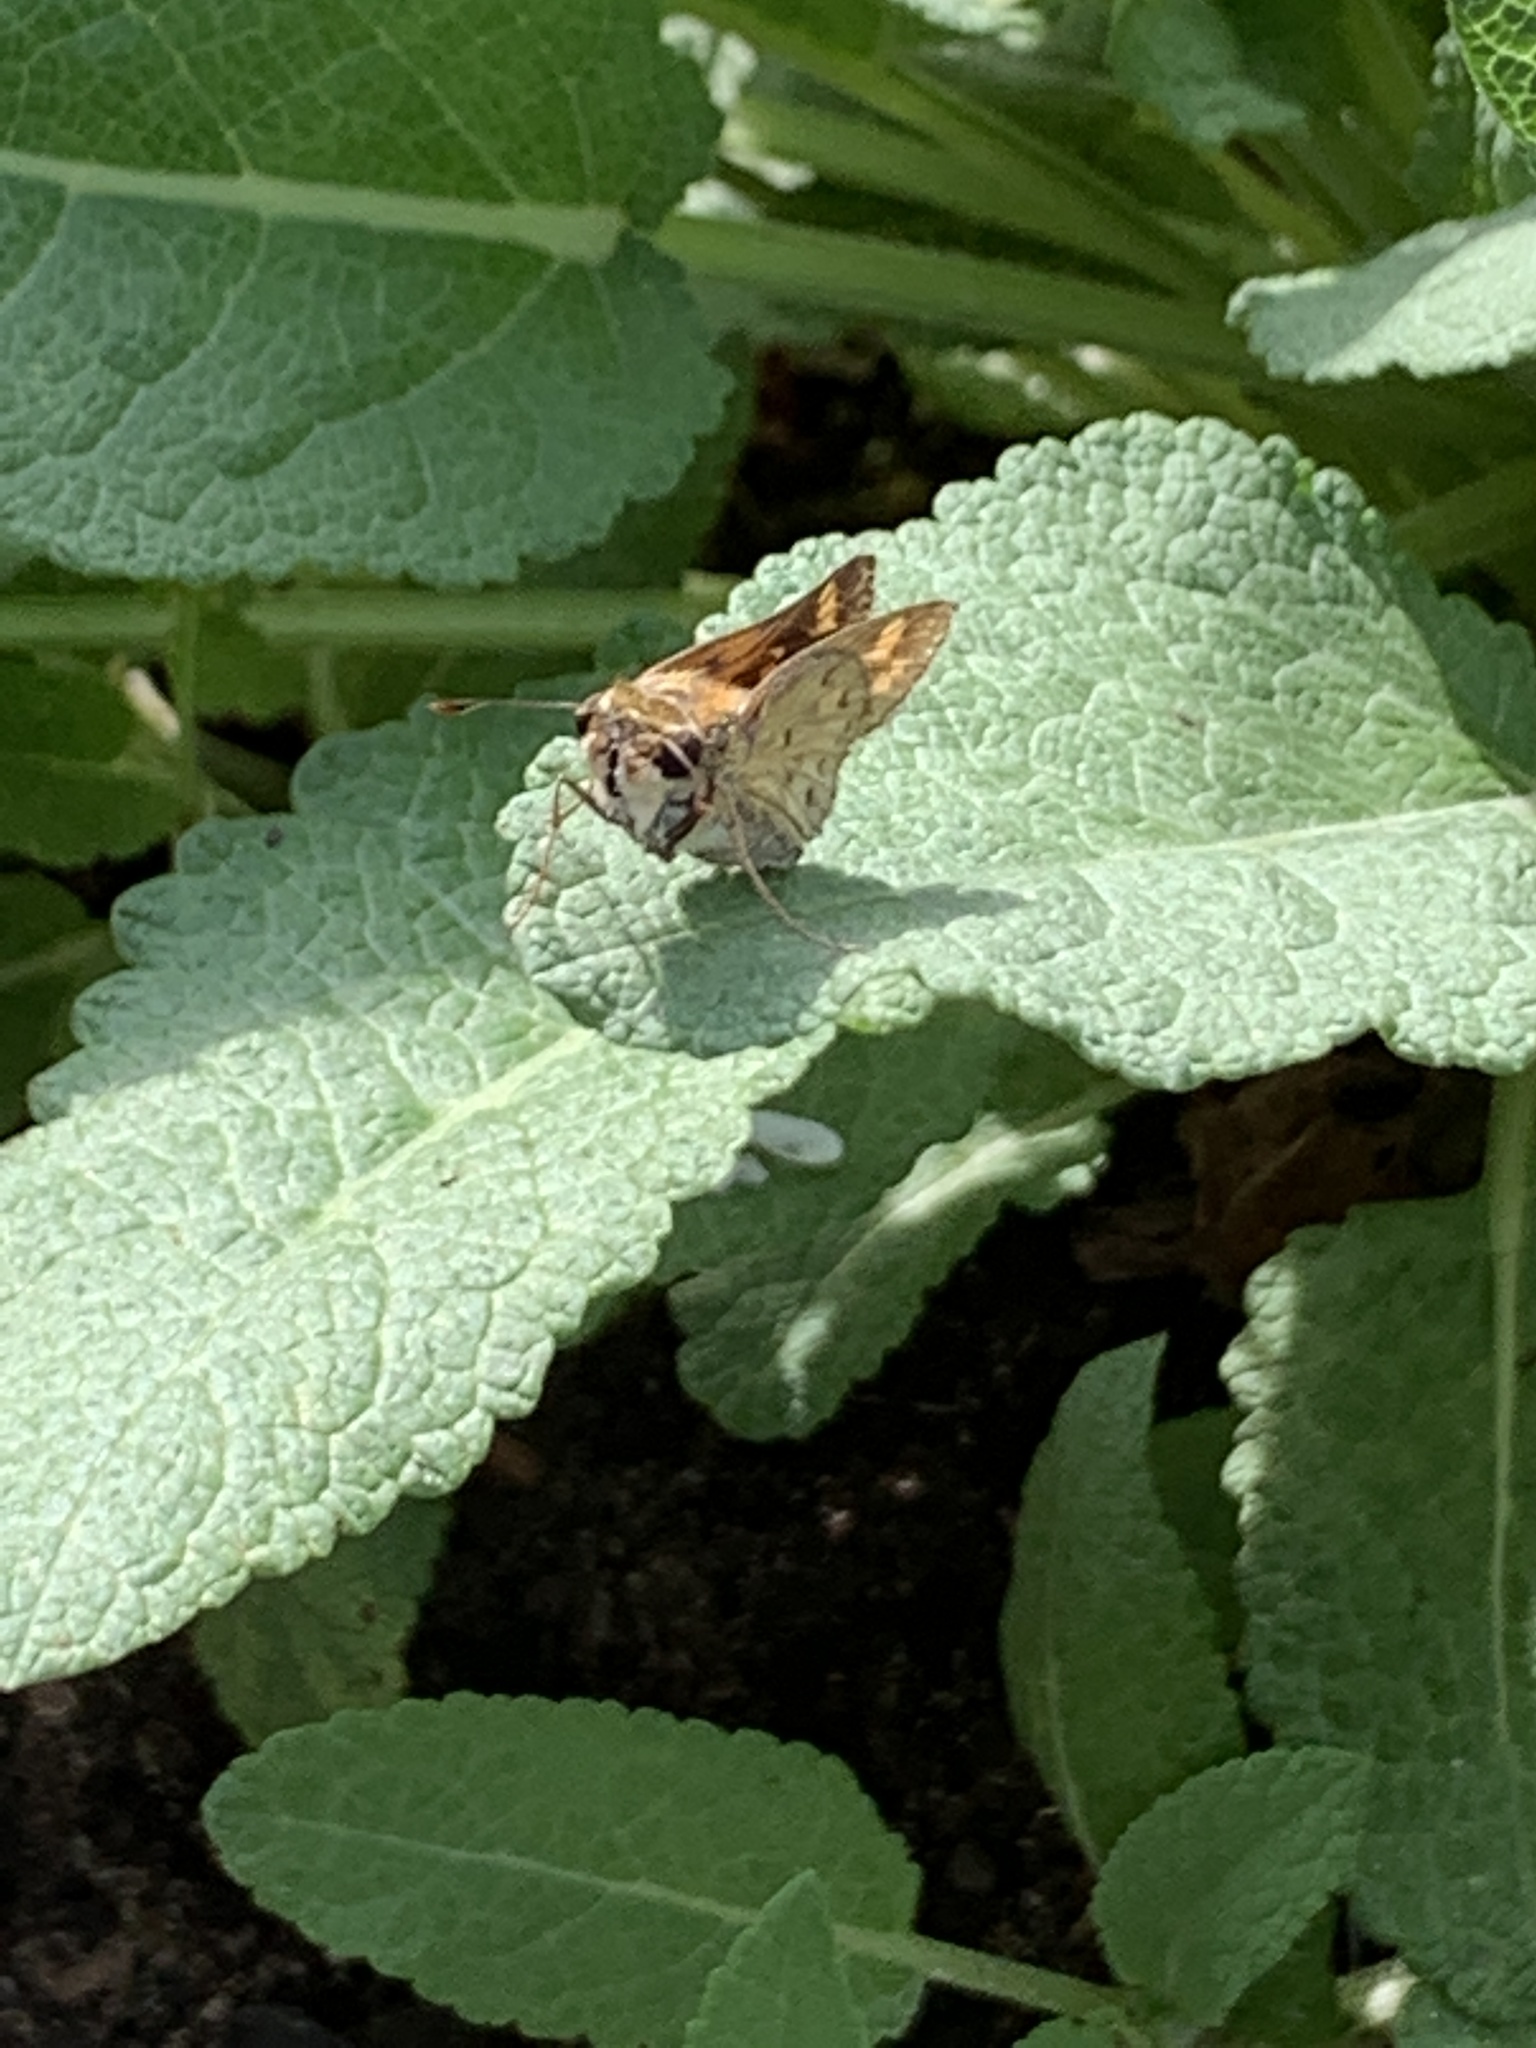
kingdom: Animalia
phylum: Arthropoda
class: Insecta
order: Lepidoptera
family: Hesperiidae
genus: Hylephila
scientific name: Hylephila phyleus
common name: Fiery skipper
